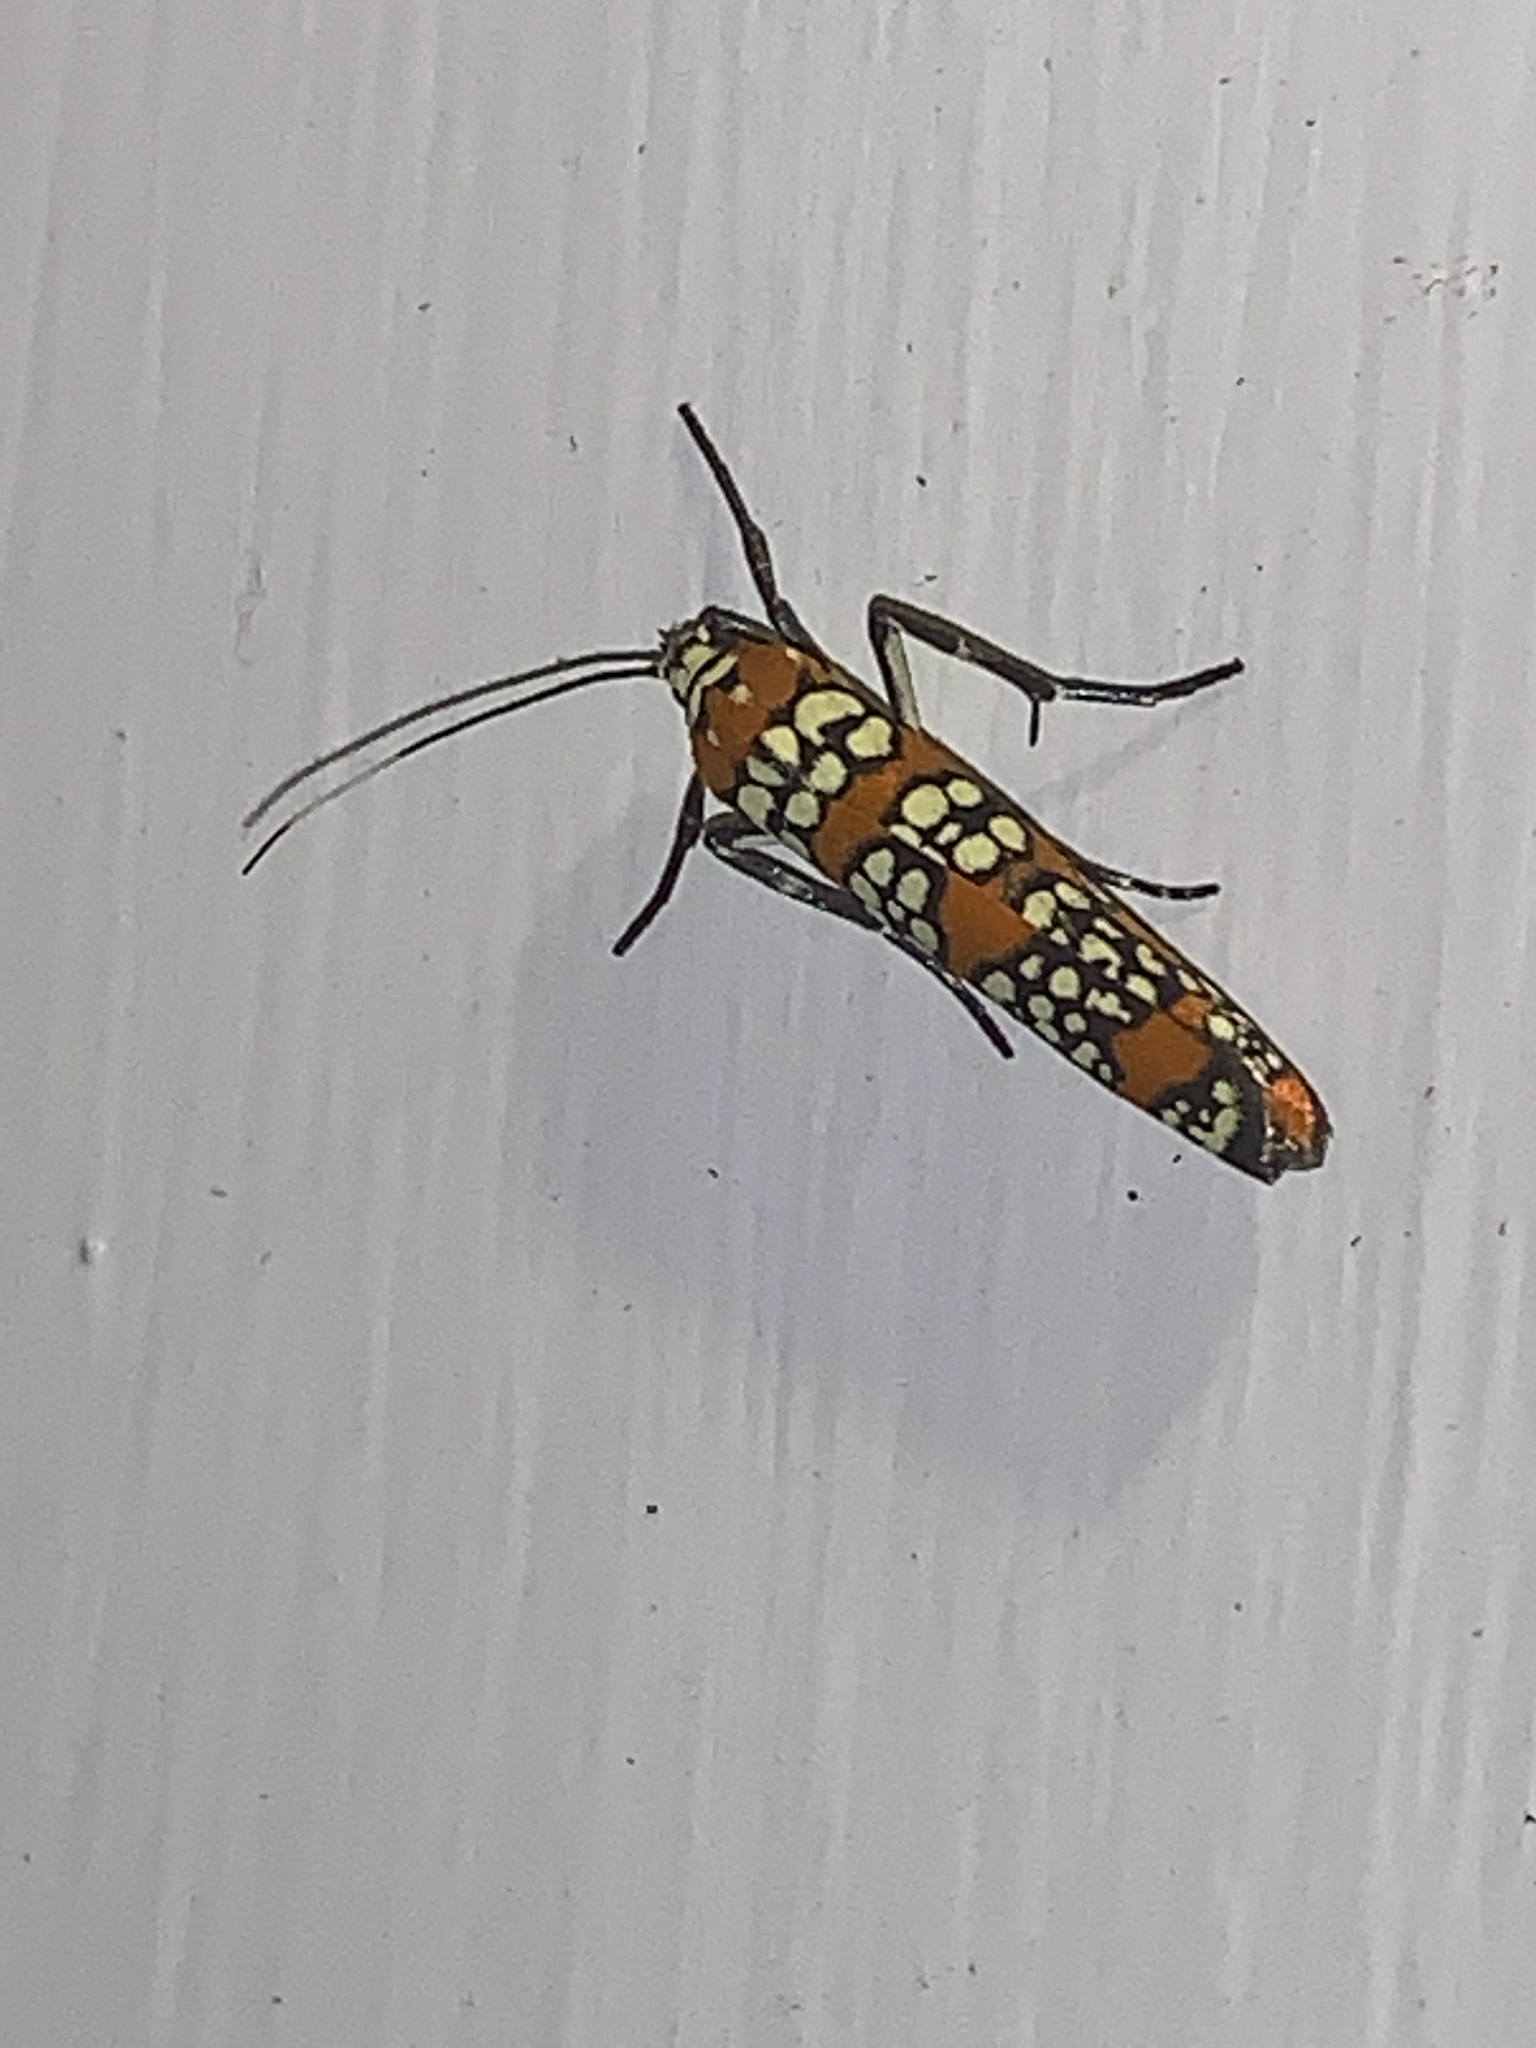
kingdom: Animalia
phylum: Arthropoda
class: Insecta
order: Lepidoptera
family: Attevidae
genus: Atteva
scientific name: Atteva punctella
